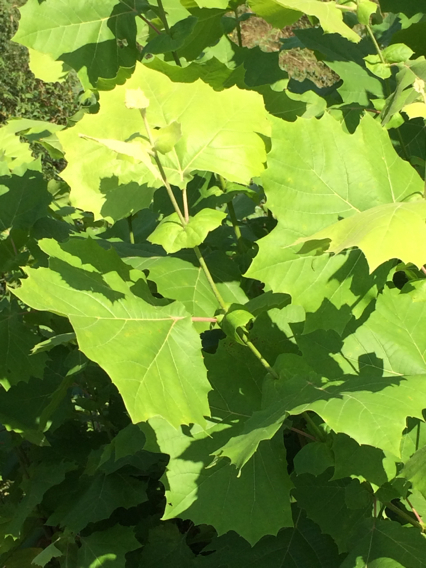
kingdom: Plantae
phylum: Tracheophyta
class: Magnoliopsida
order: Proteales
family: Platanaceae
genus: Platanus
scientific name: Platanus occidentalis
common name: American sycamore
